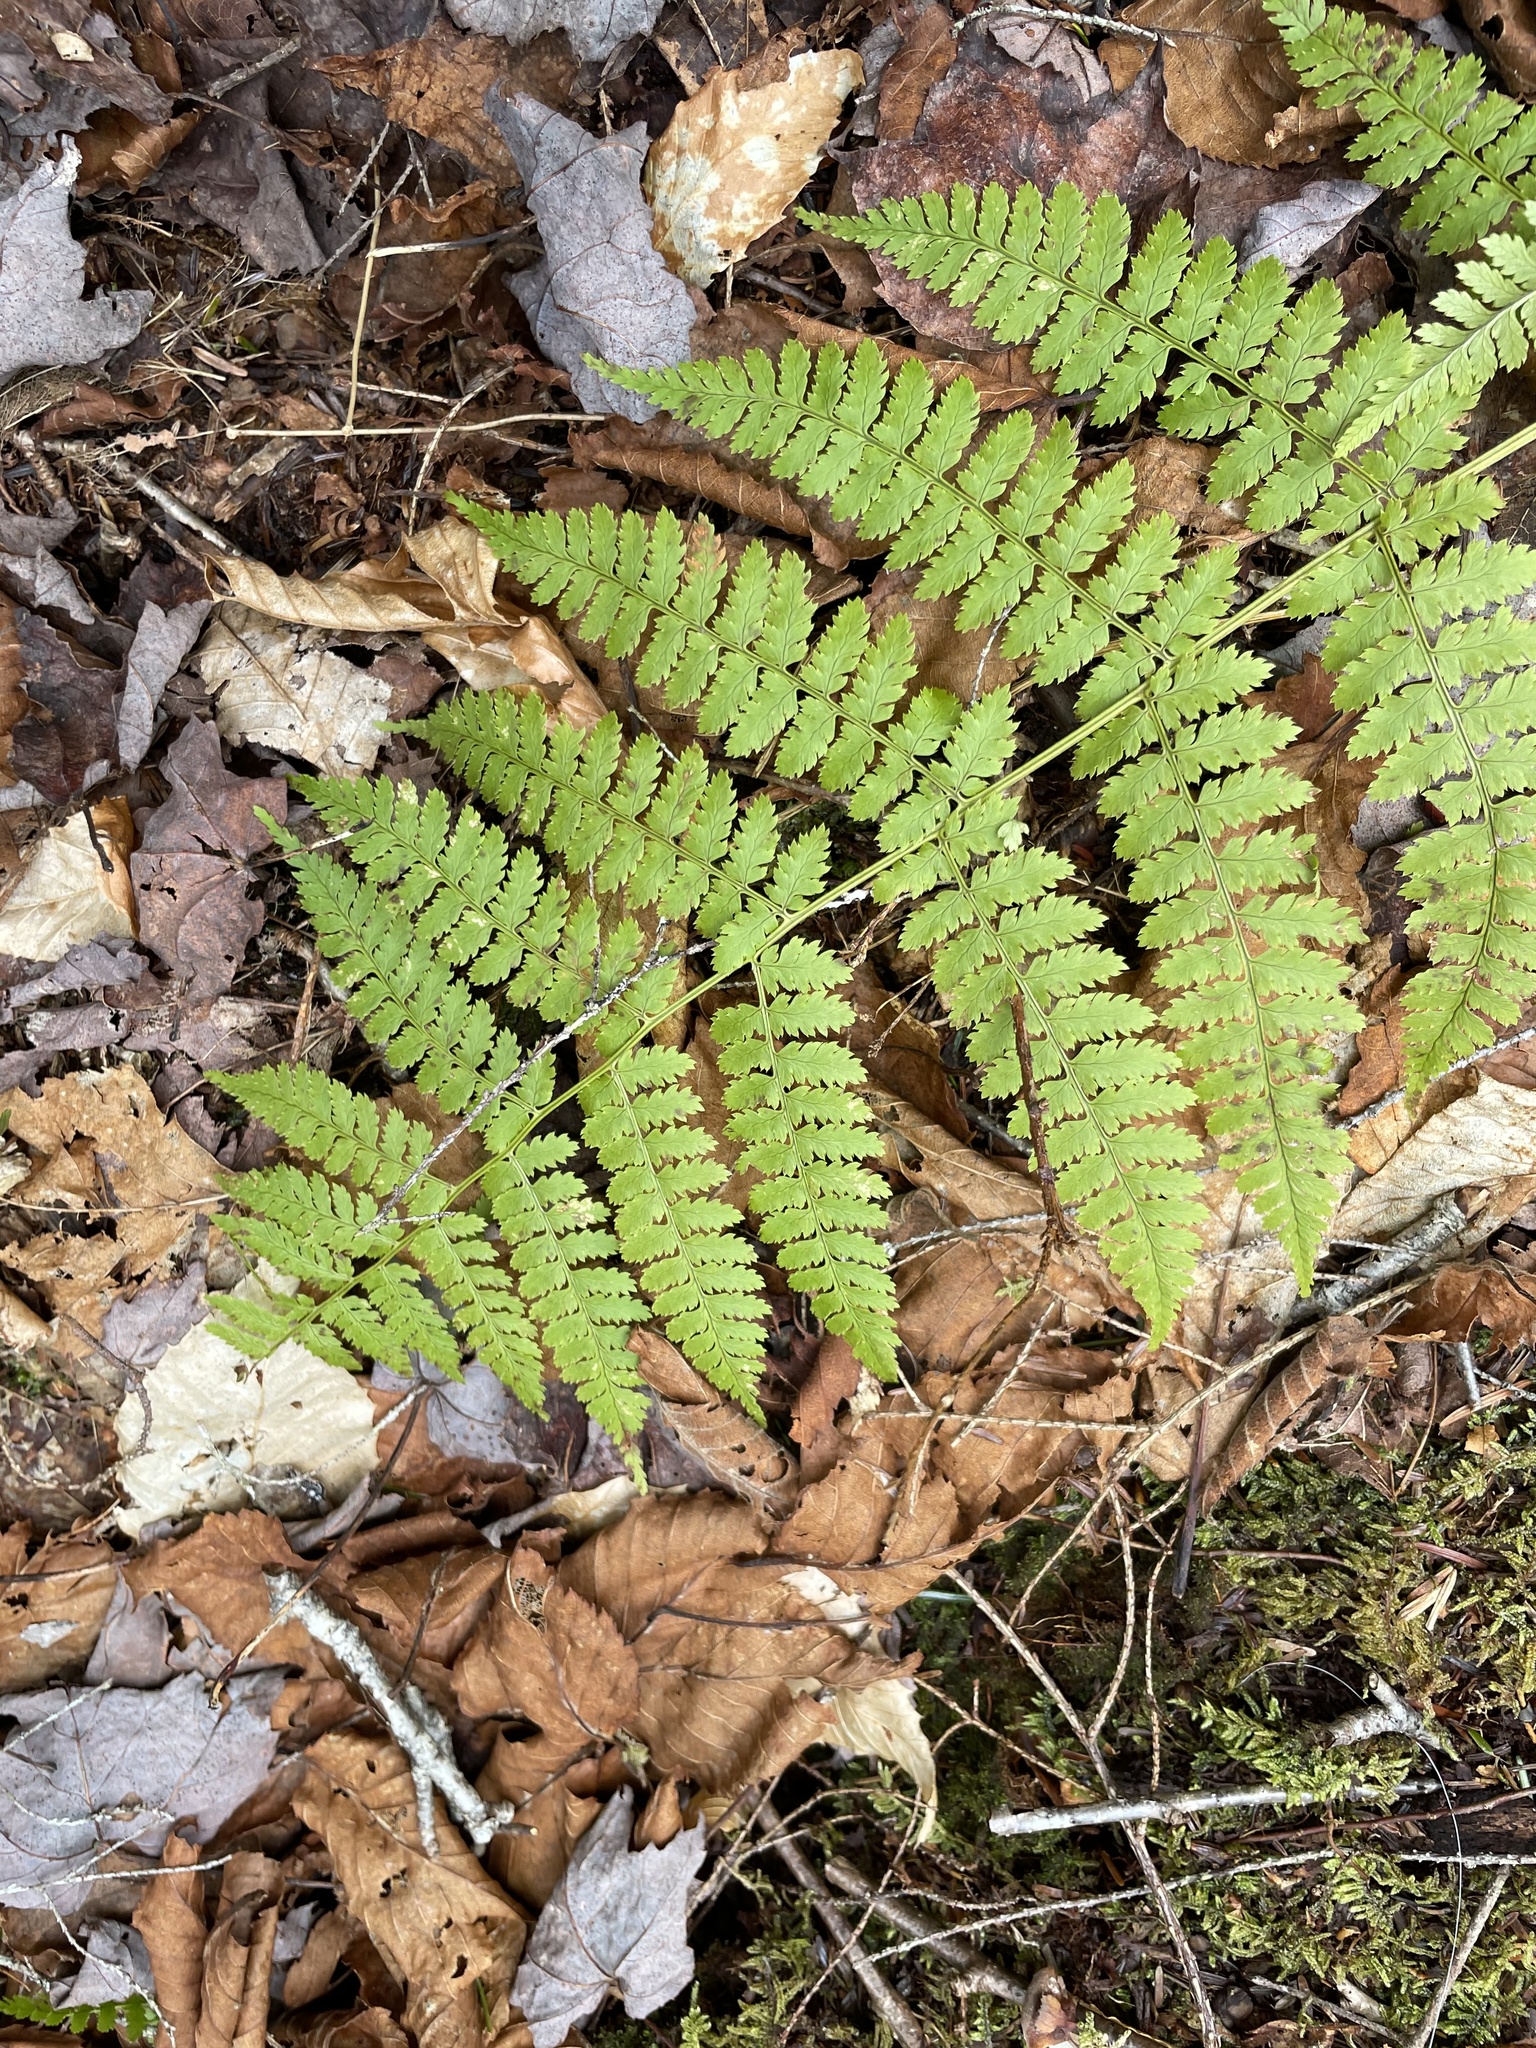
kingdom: Plantae
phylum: Tracheophyta
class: Polypodiopsida
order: Polypodiales
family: Dryopteridaceae
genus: Dryopteris
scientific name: Dryopteris intermedia
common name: Evergreen wood fern
